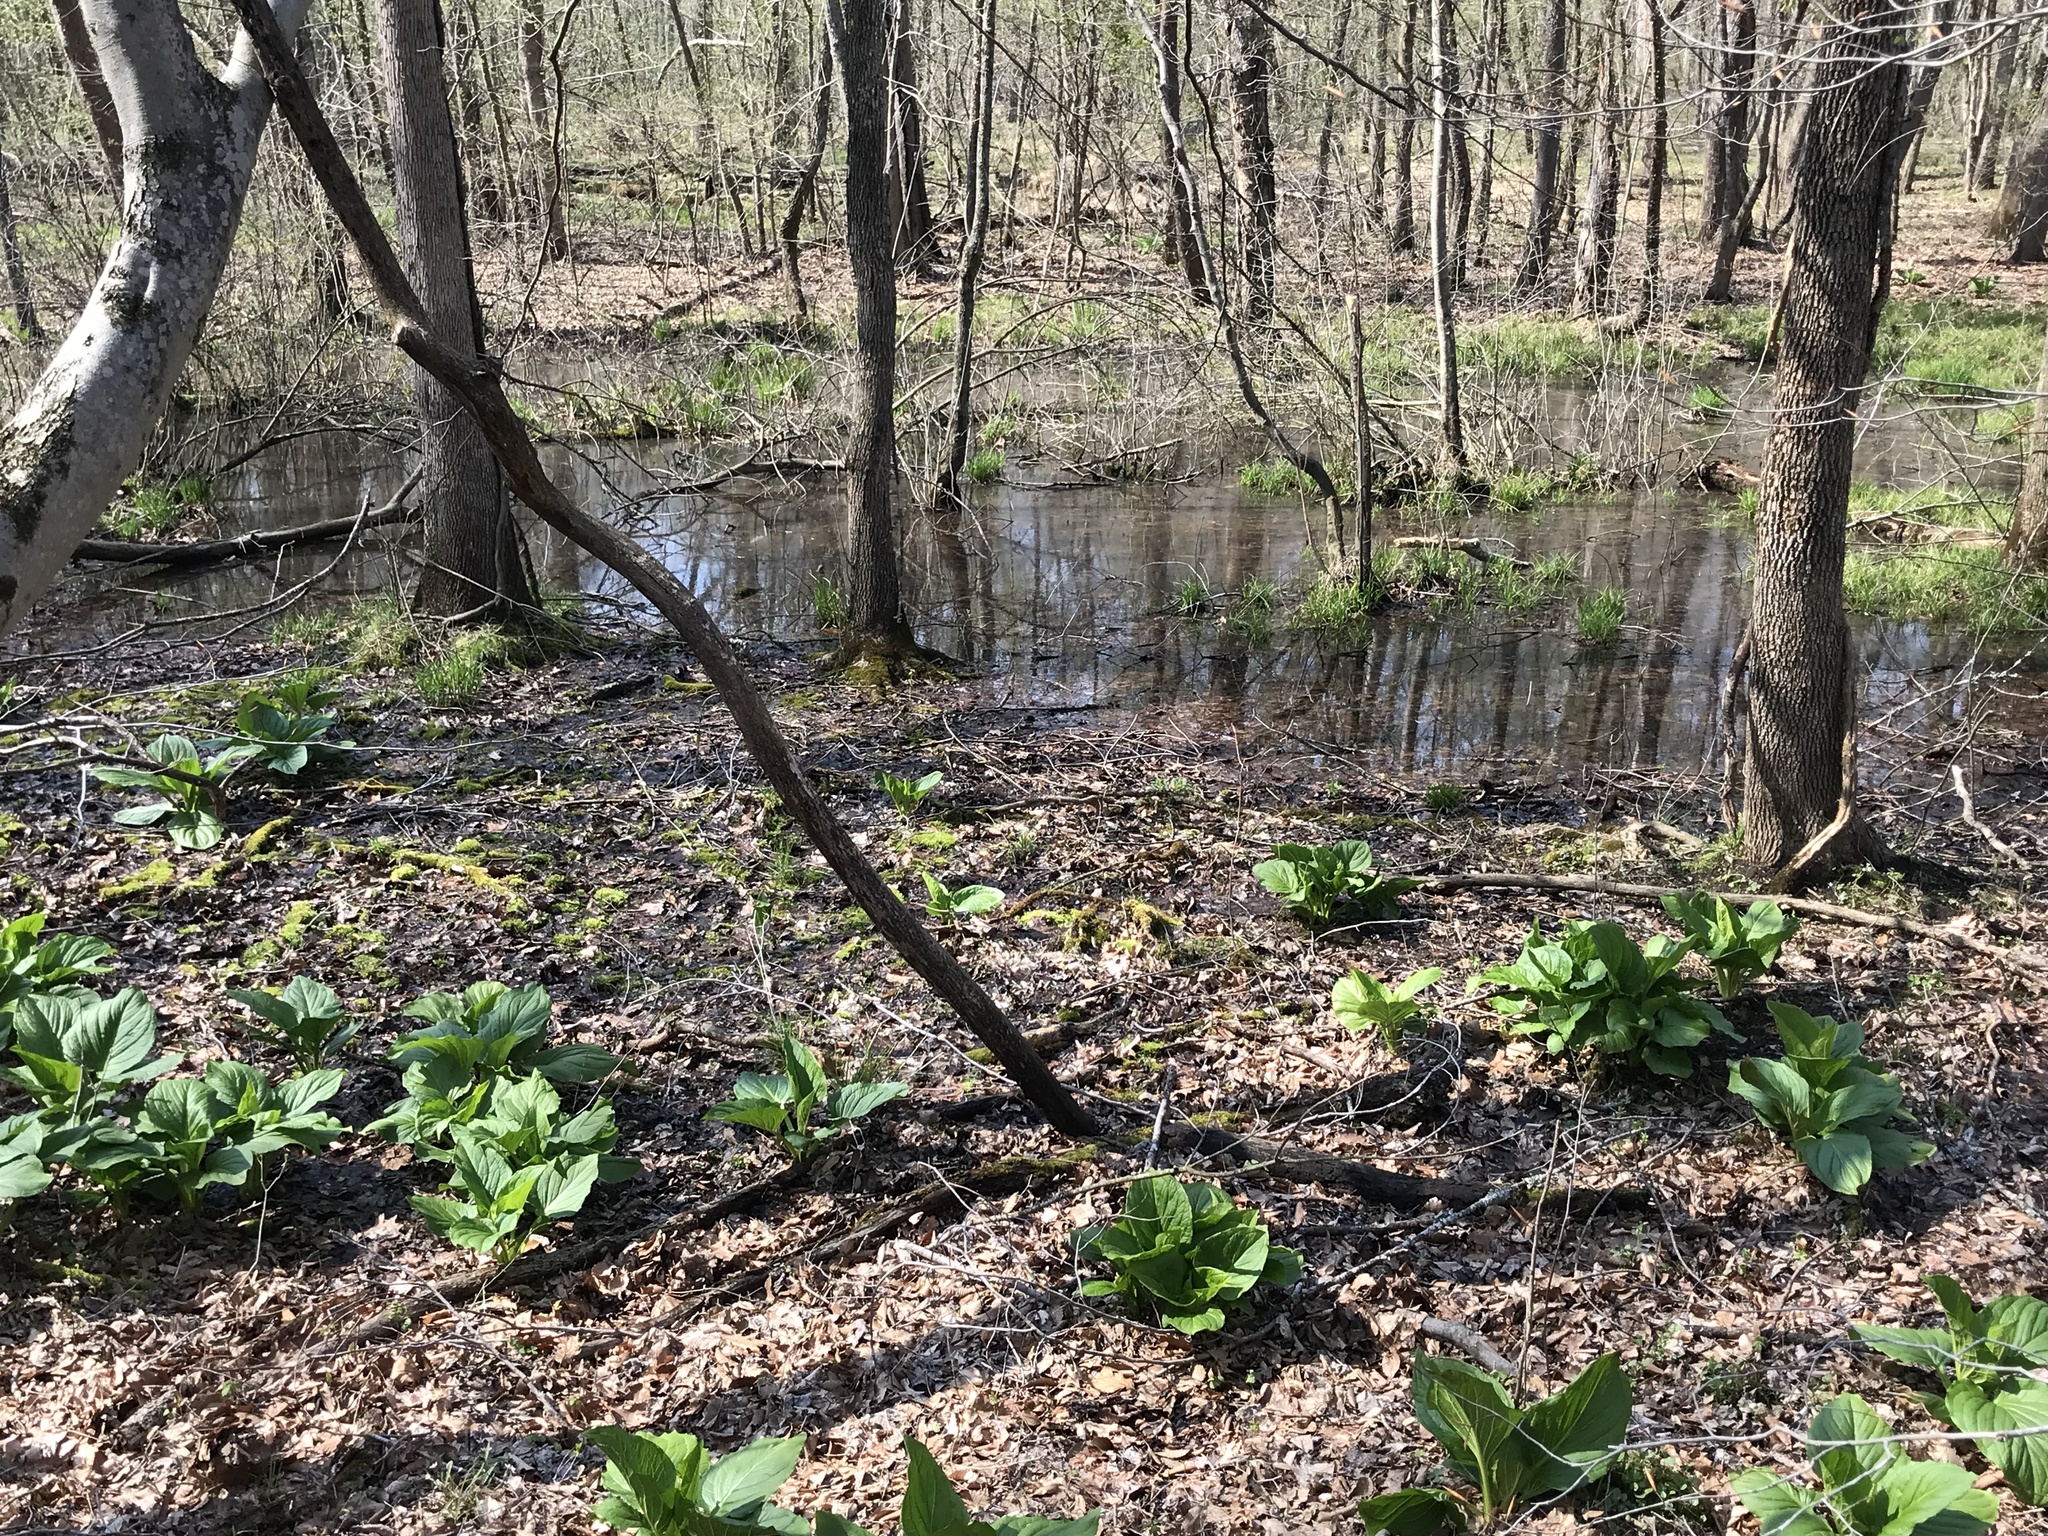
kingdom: Plantae
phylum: Tracheophyta
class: Liliopsida
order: Alismatales
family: Araceae
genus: Symplocarpus
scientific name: Symplocarpus foetidus
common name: Eastern skunk cabbage
